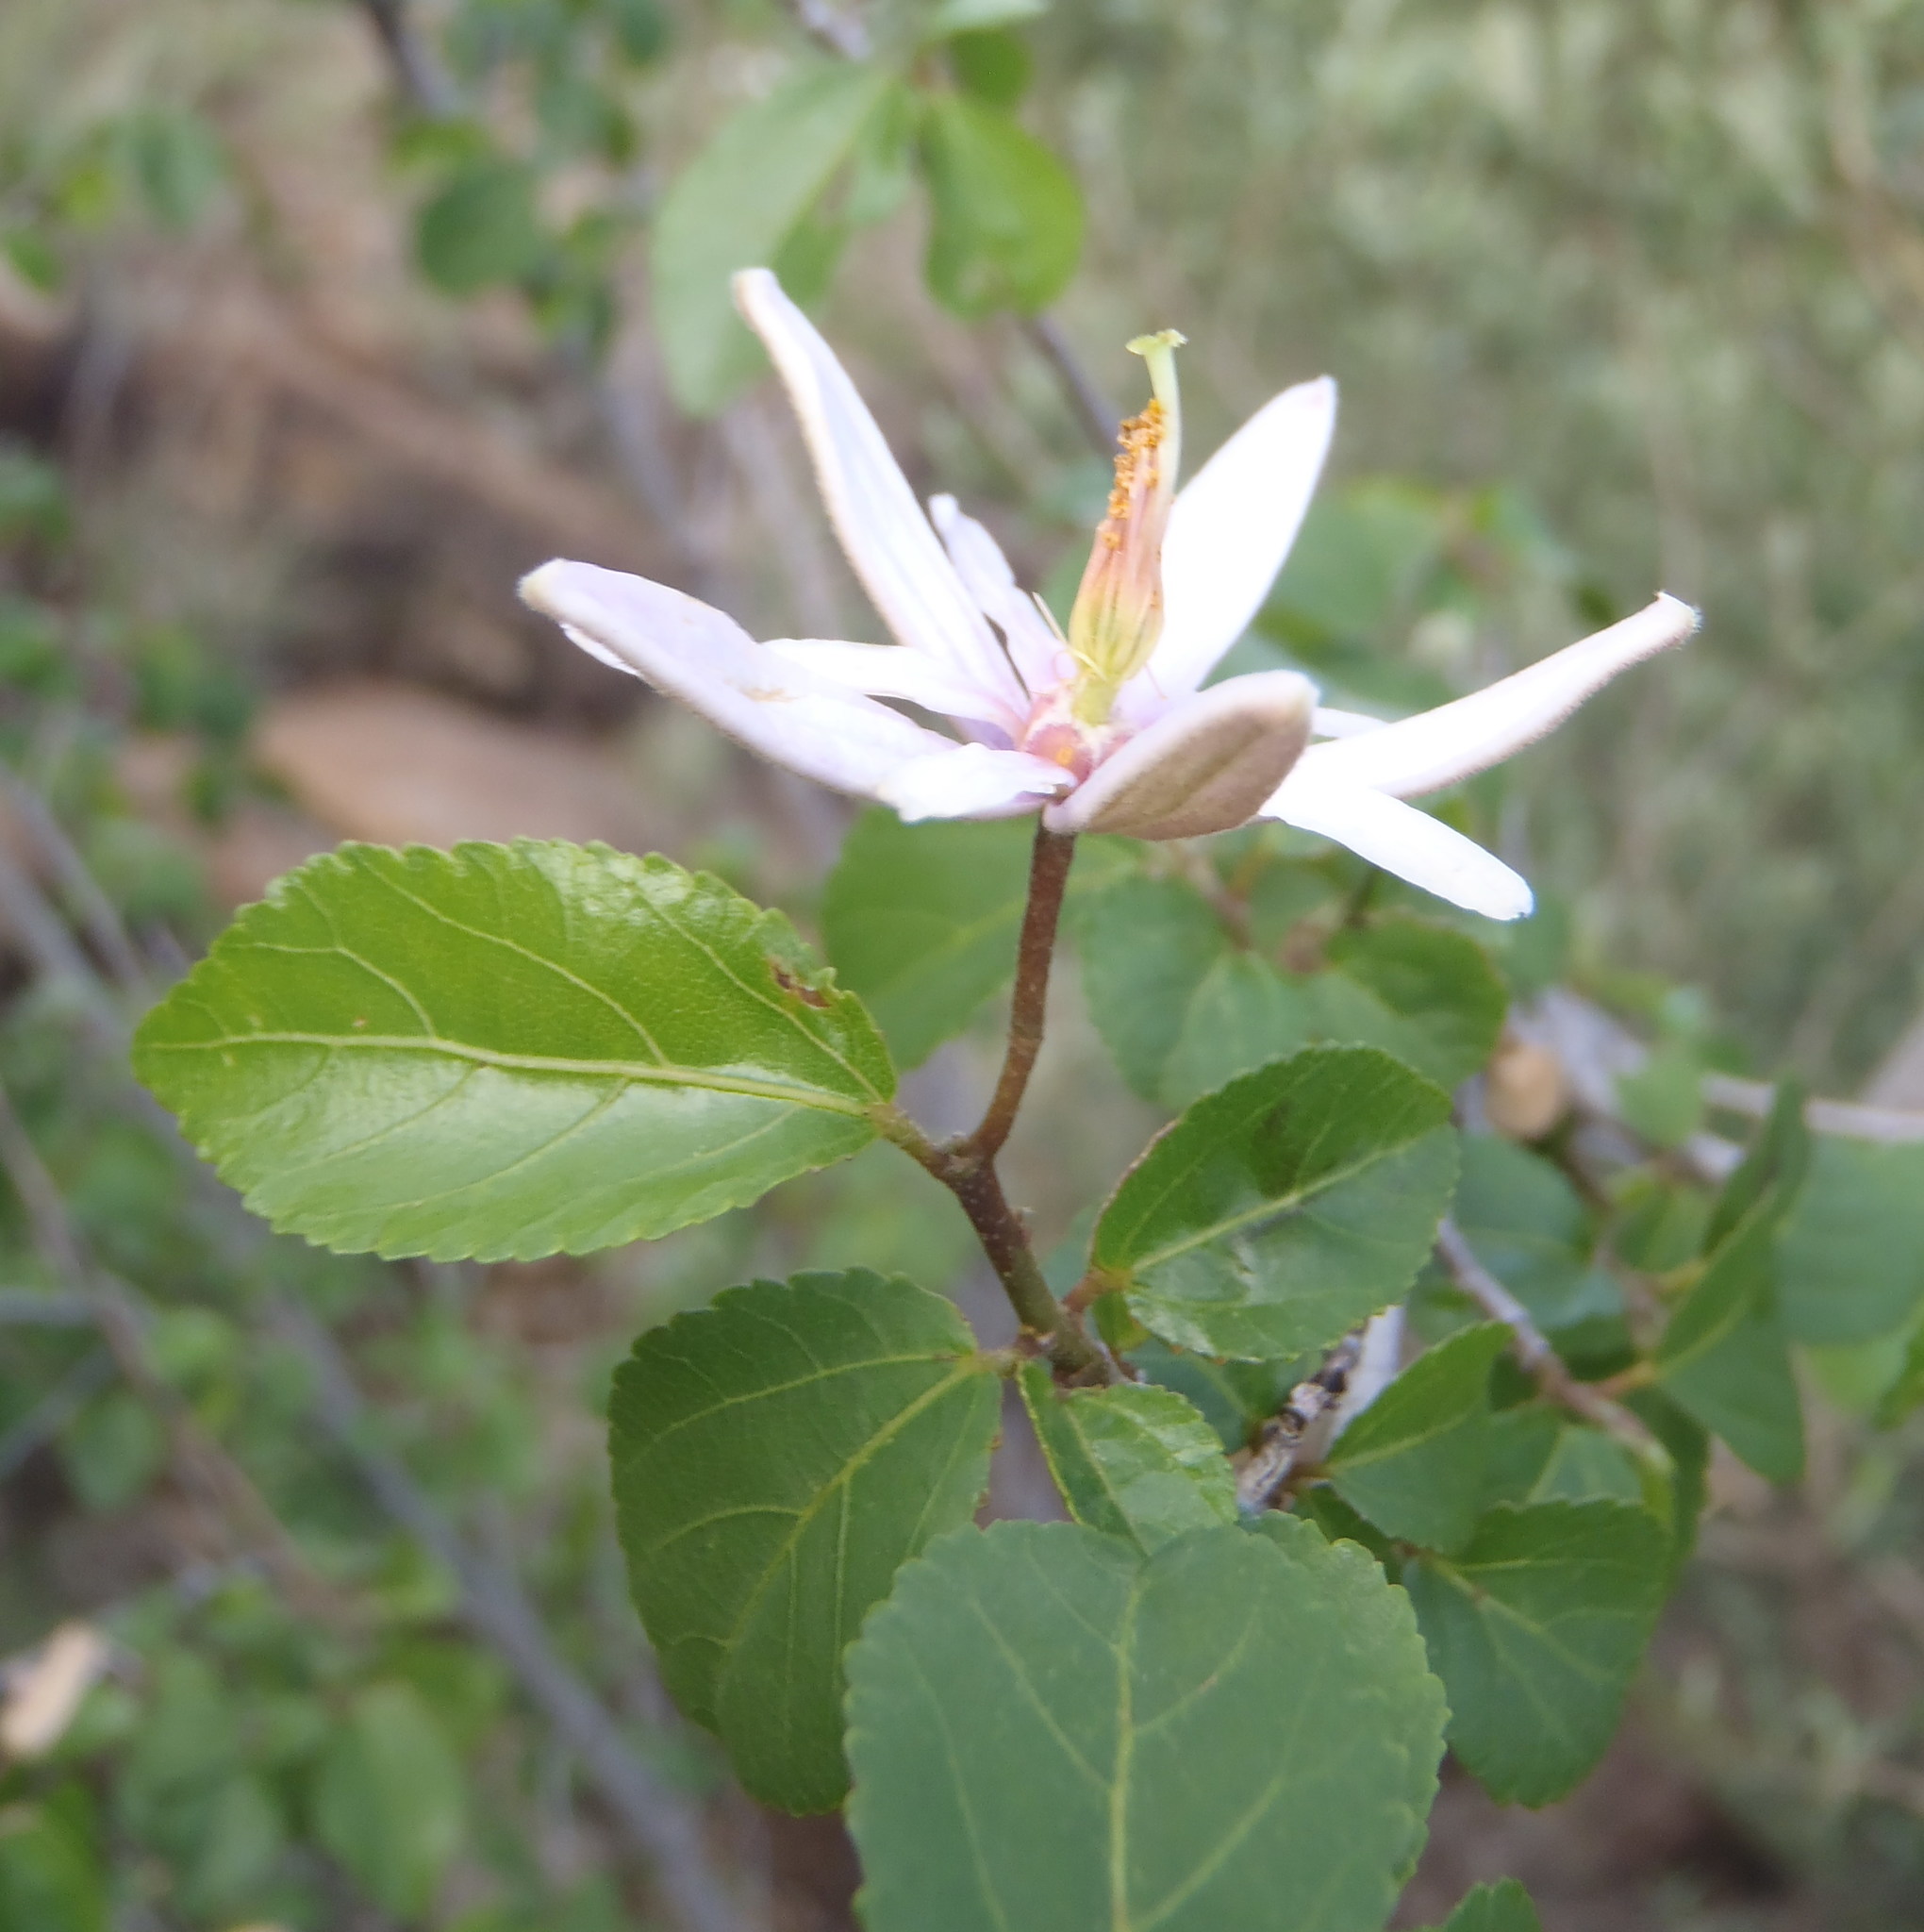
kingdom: Plantae
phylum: Tracheophyta
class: Magnoliopsida
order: Malvales
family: Malvaceae
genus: Grewia
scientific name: Grewia occidentalis
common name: Crossberry
